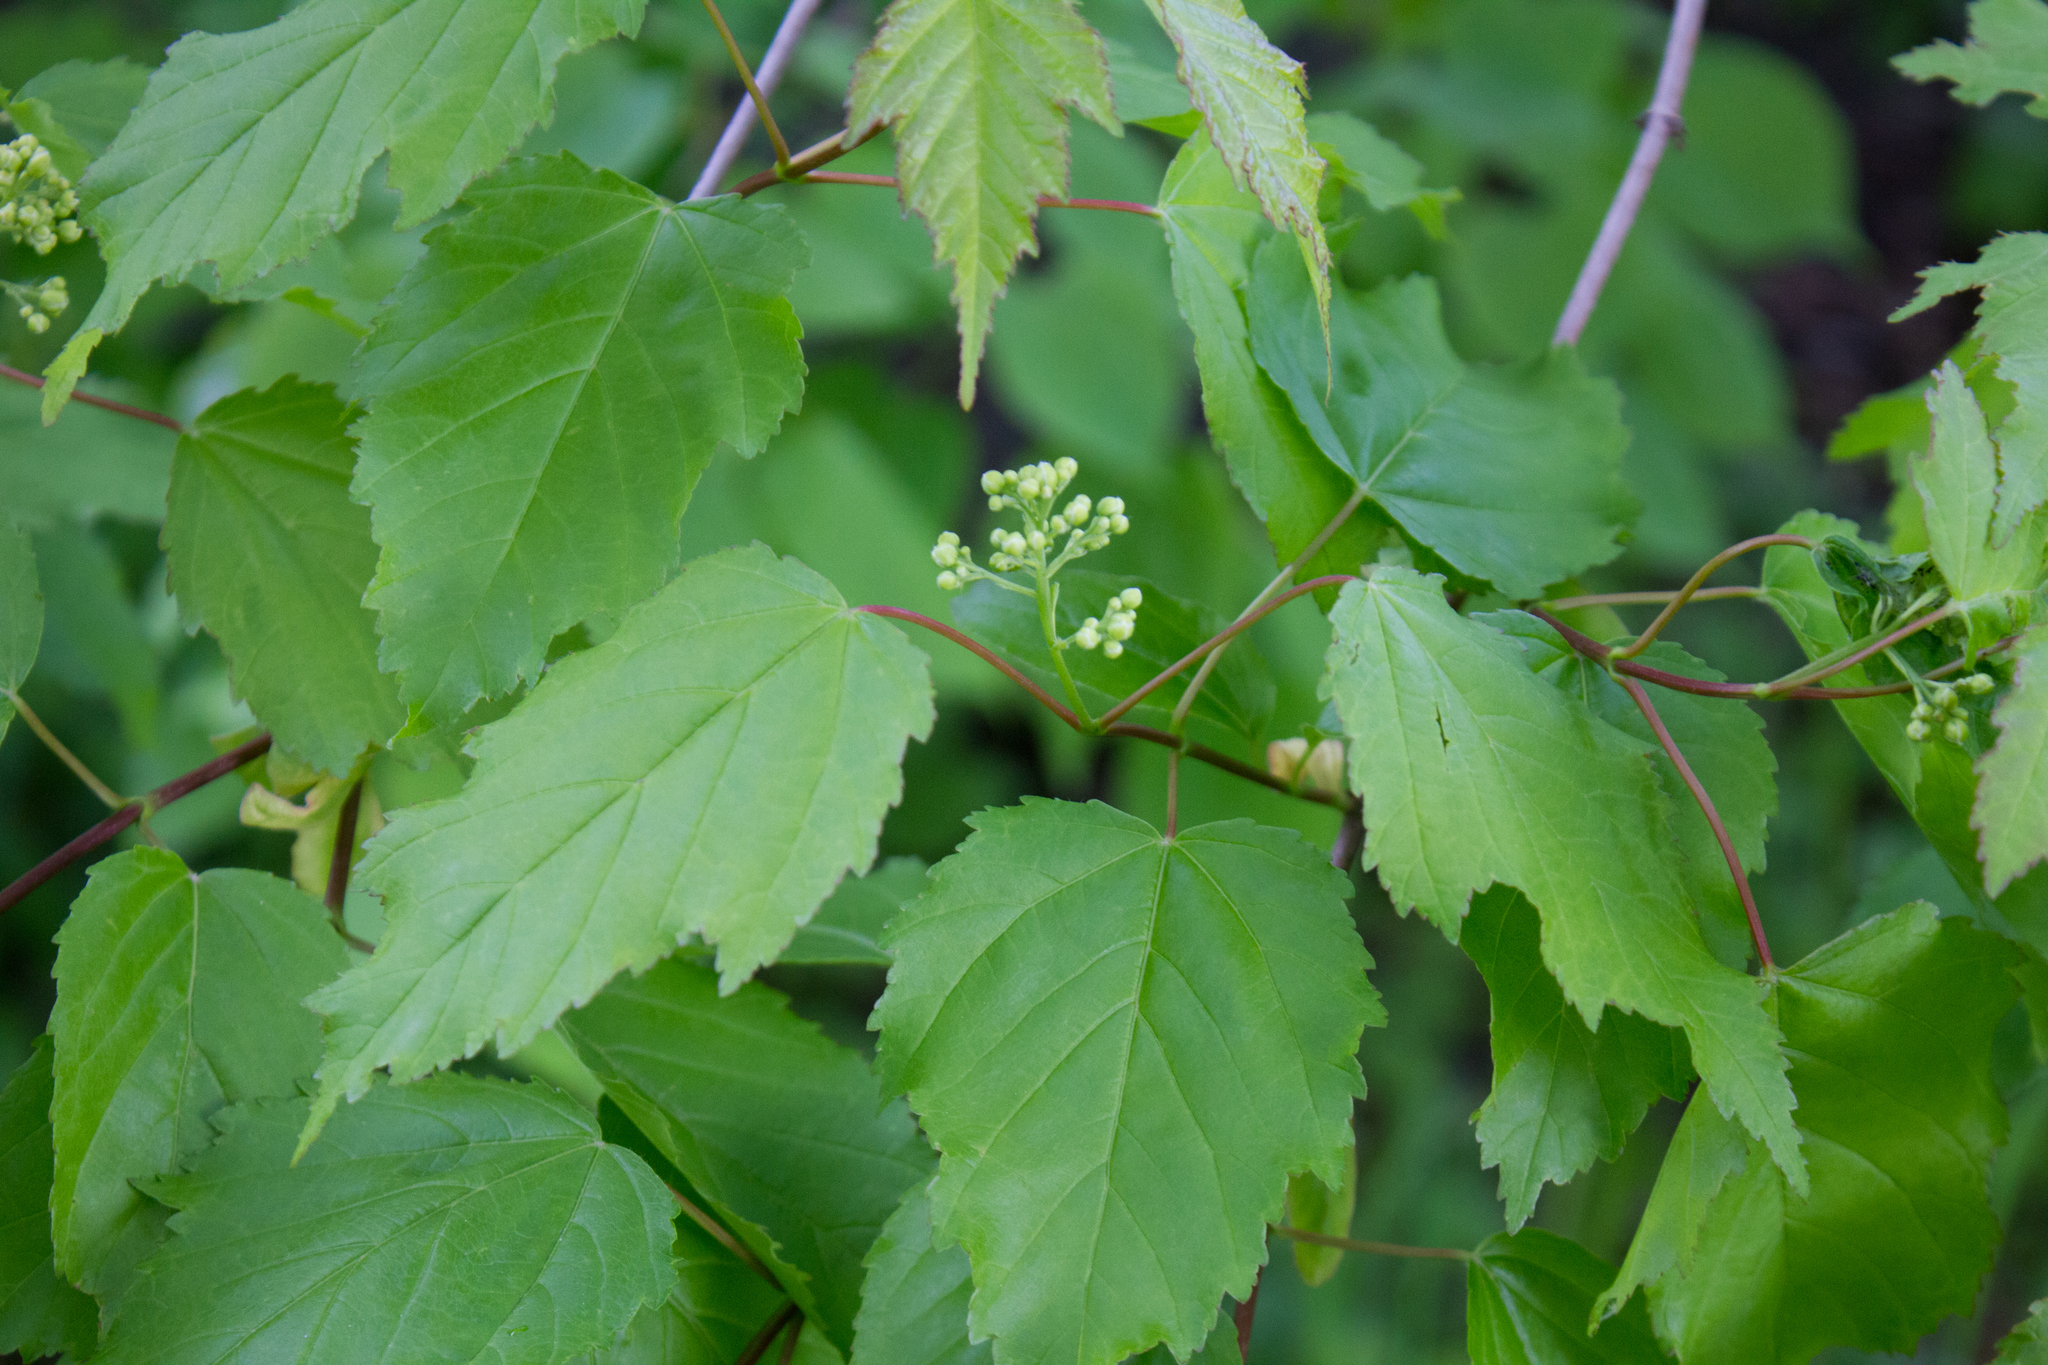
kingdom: Plantae
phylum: Tracheophyta
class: Magnoliopsida
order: Sapindales
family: Sapindaceae
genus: Acer
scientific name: Acer tataricum
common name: Tartar maple
